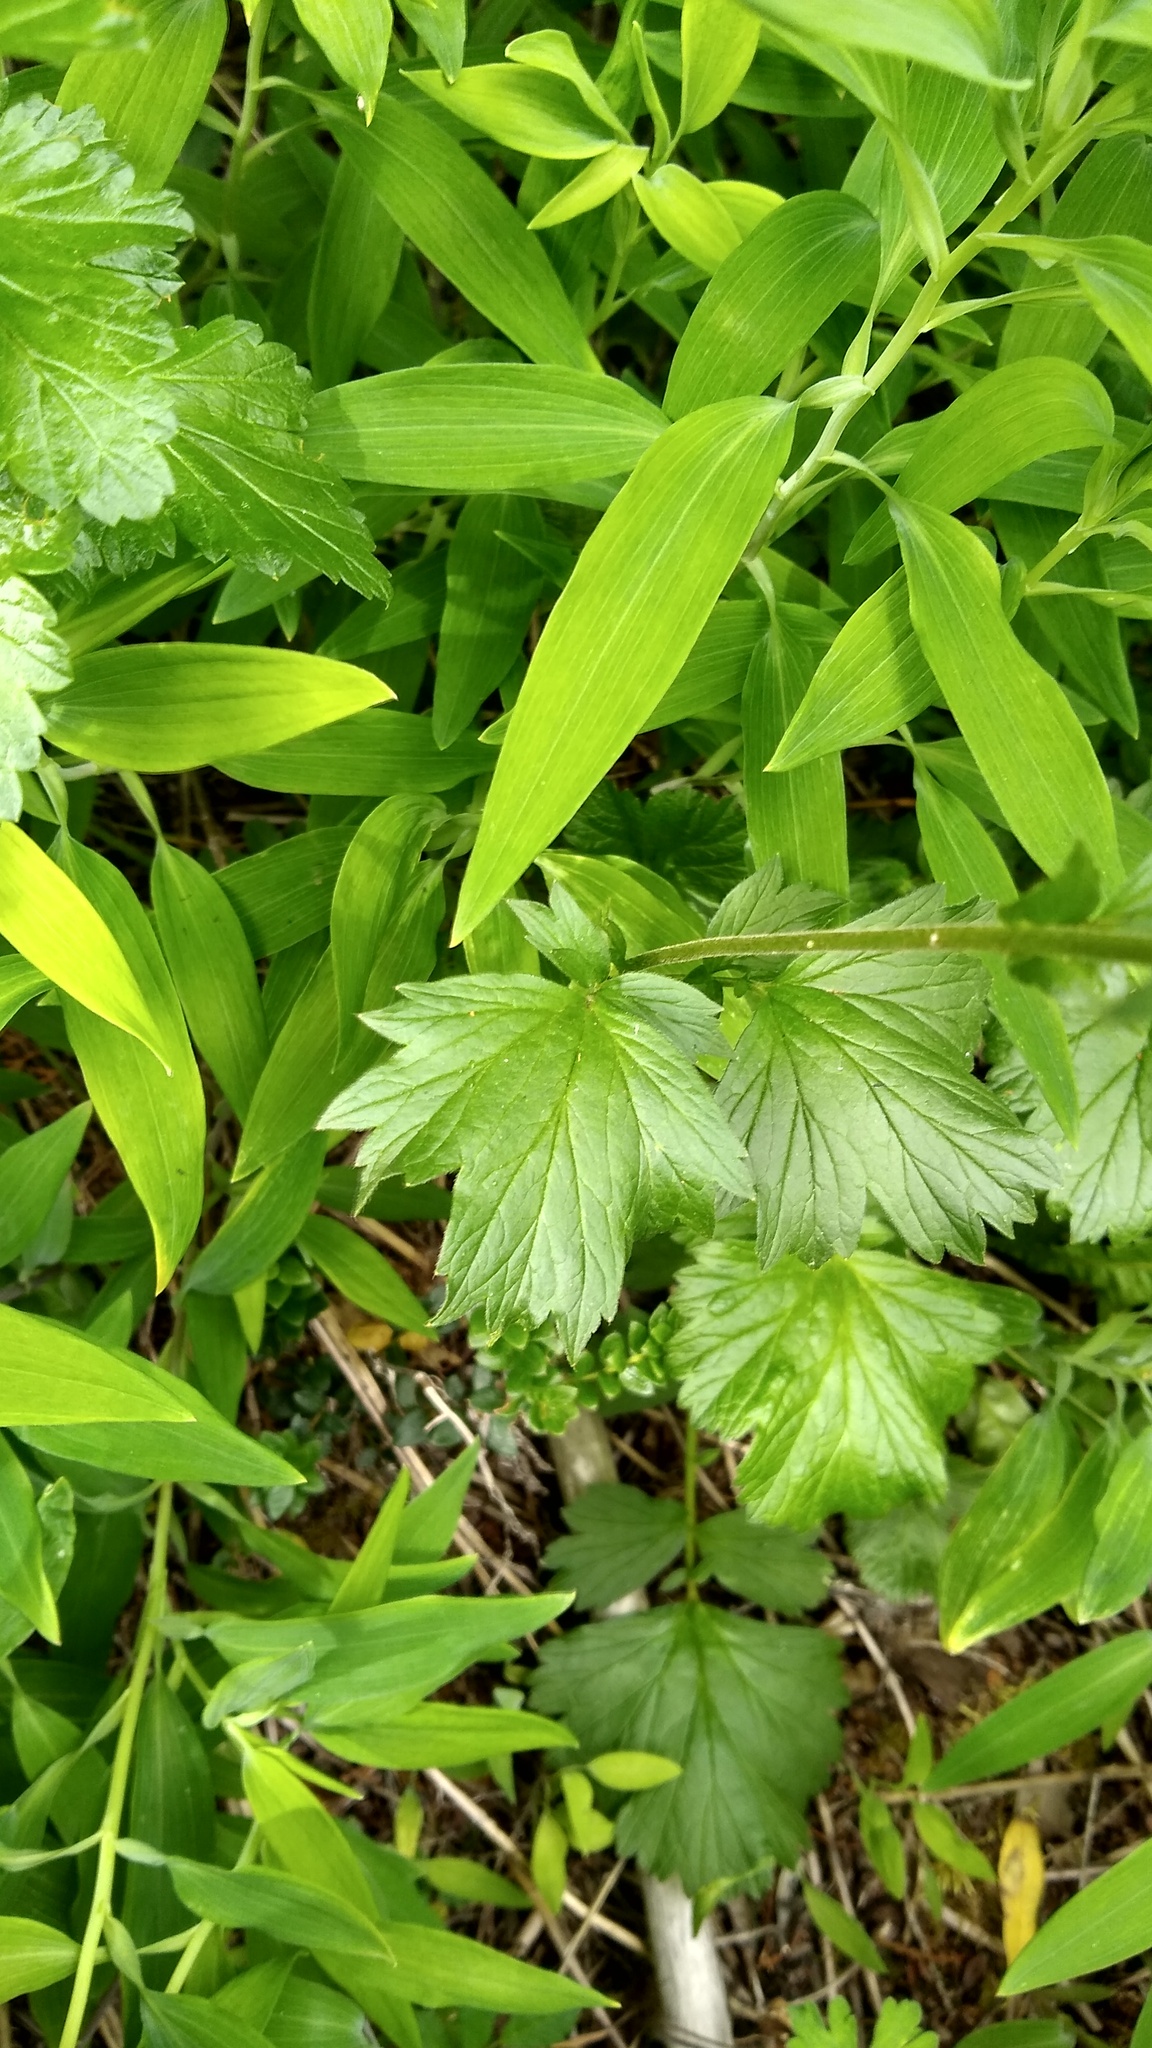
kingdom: Plantae
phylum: Tracheophyta
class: Magnoliopsida
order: Rosales
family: Rosaceae
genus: Geum
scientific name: Geum magellanicum
